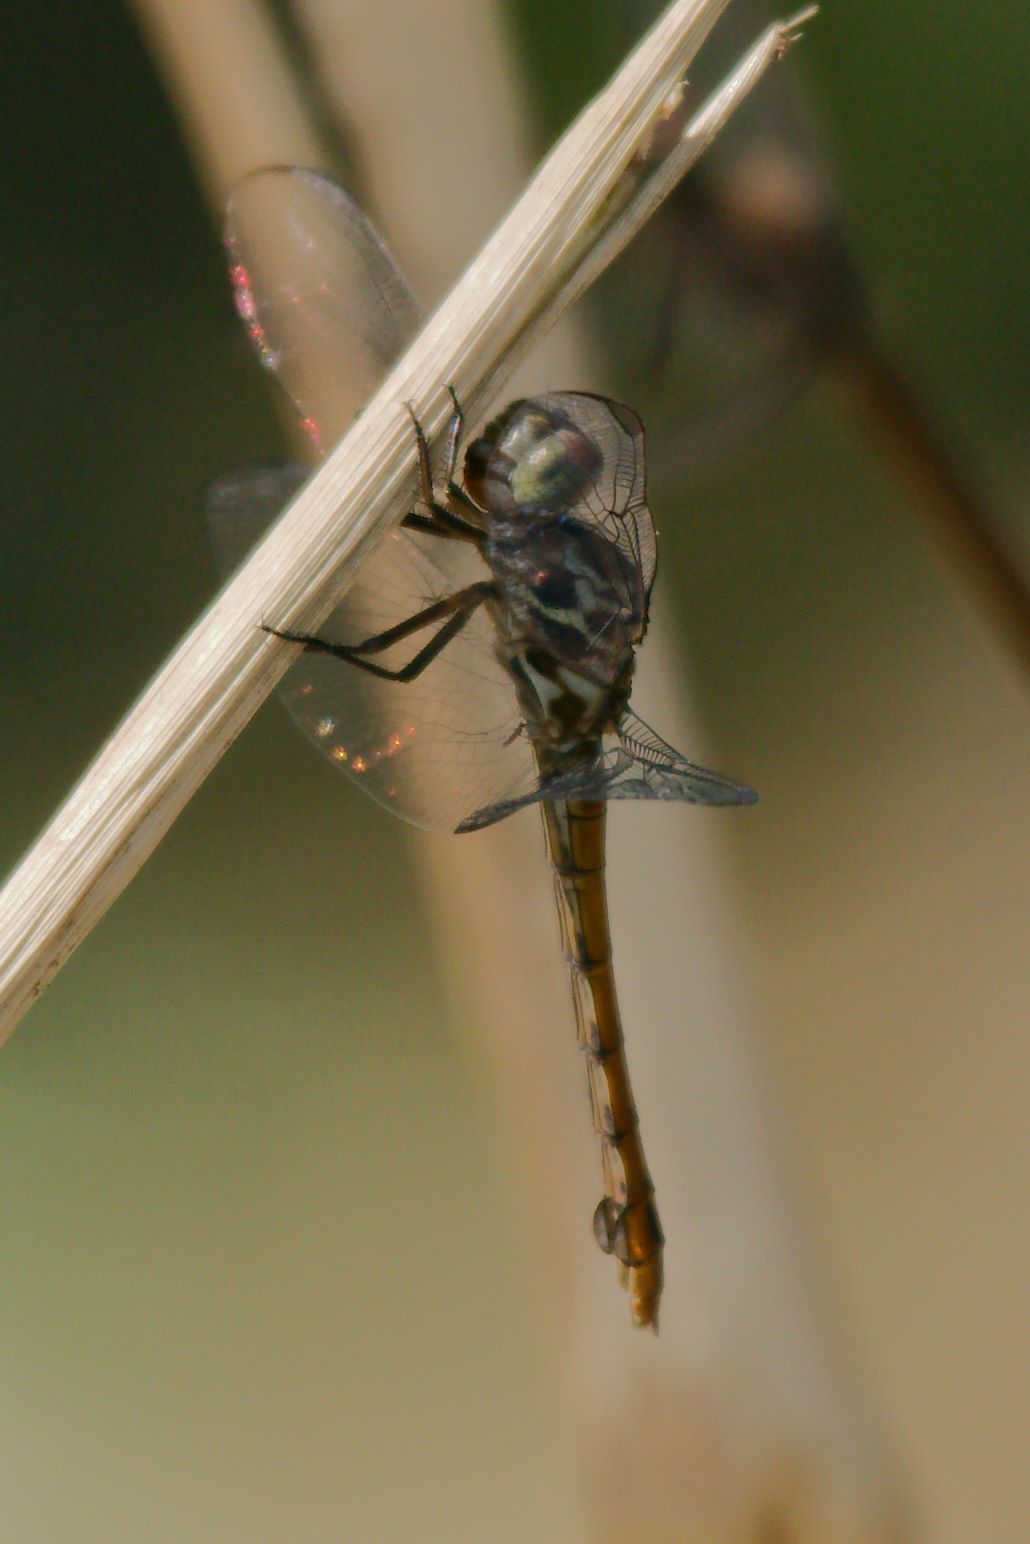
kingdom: Animalia
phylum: Arthropoda
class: Insecta
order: Odonata
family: Libellulidae
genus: Orthemis
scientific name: Orthemis ferruginea
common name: Roseate skimmer
